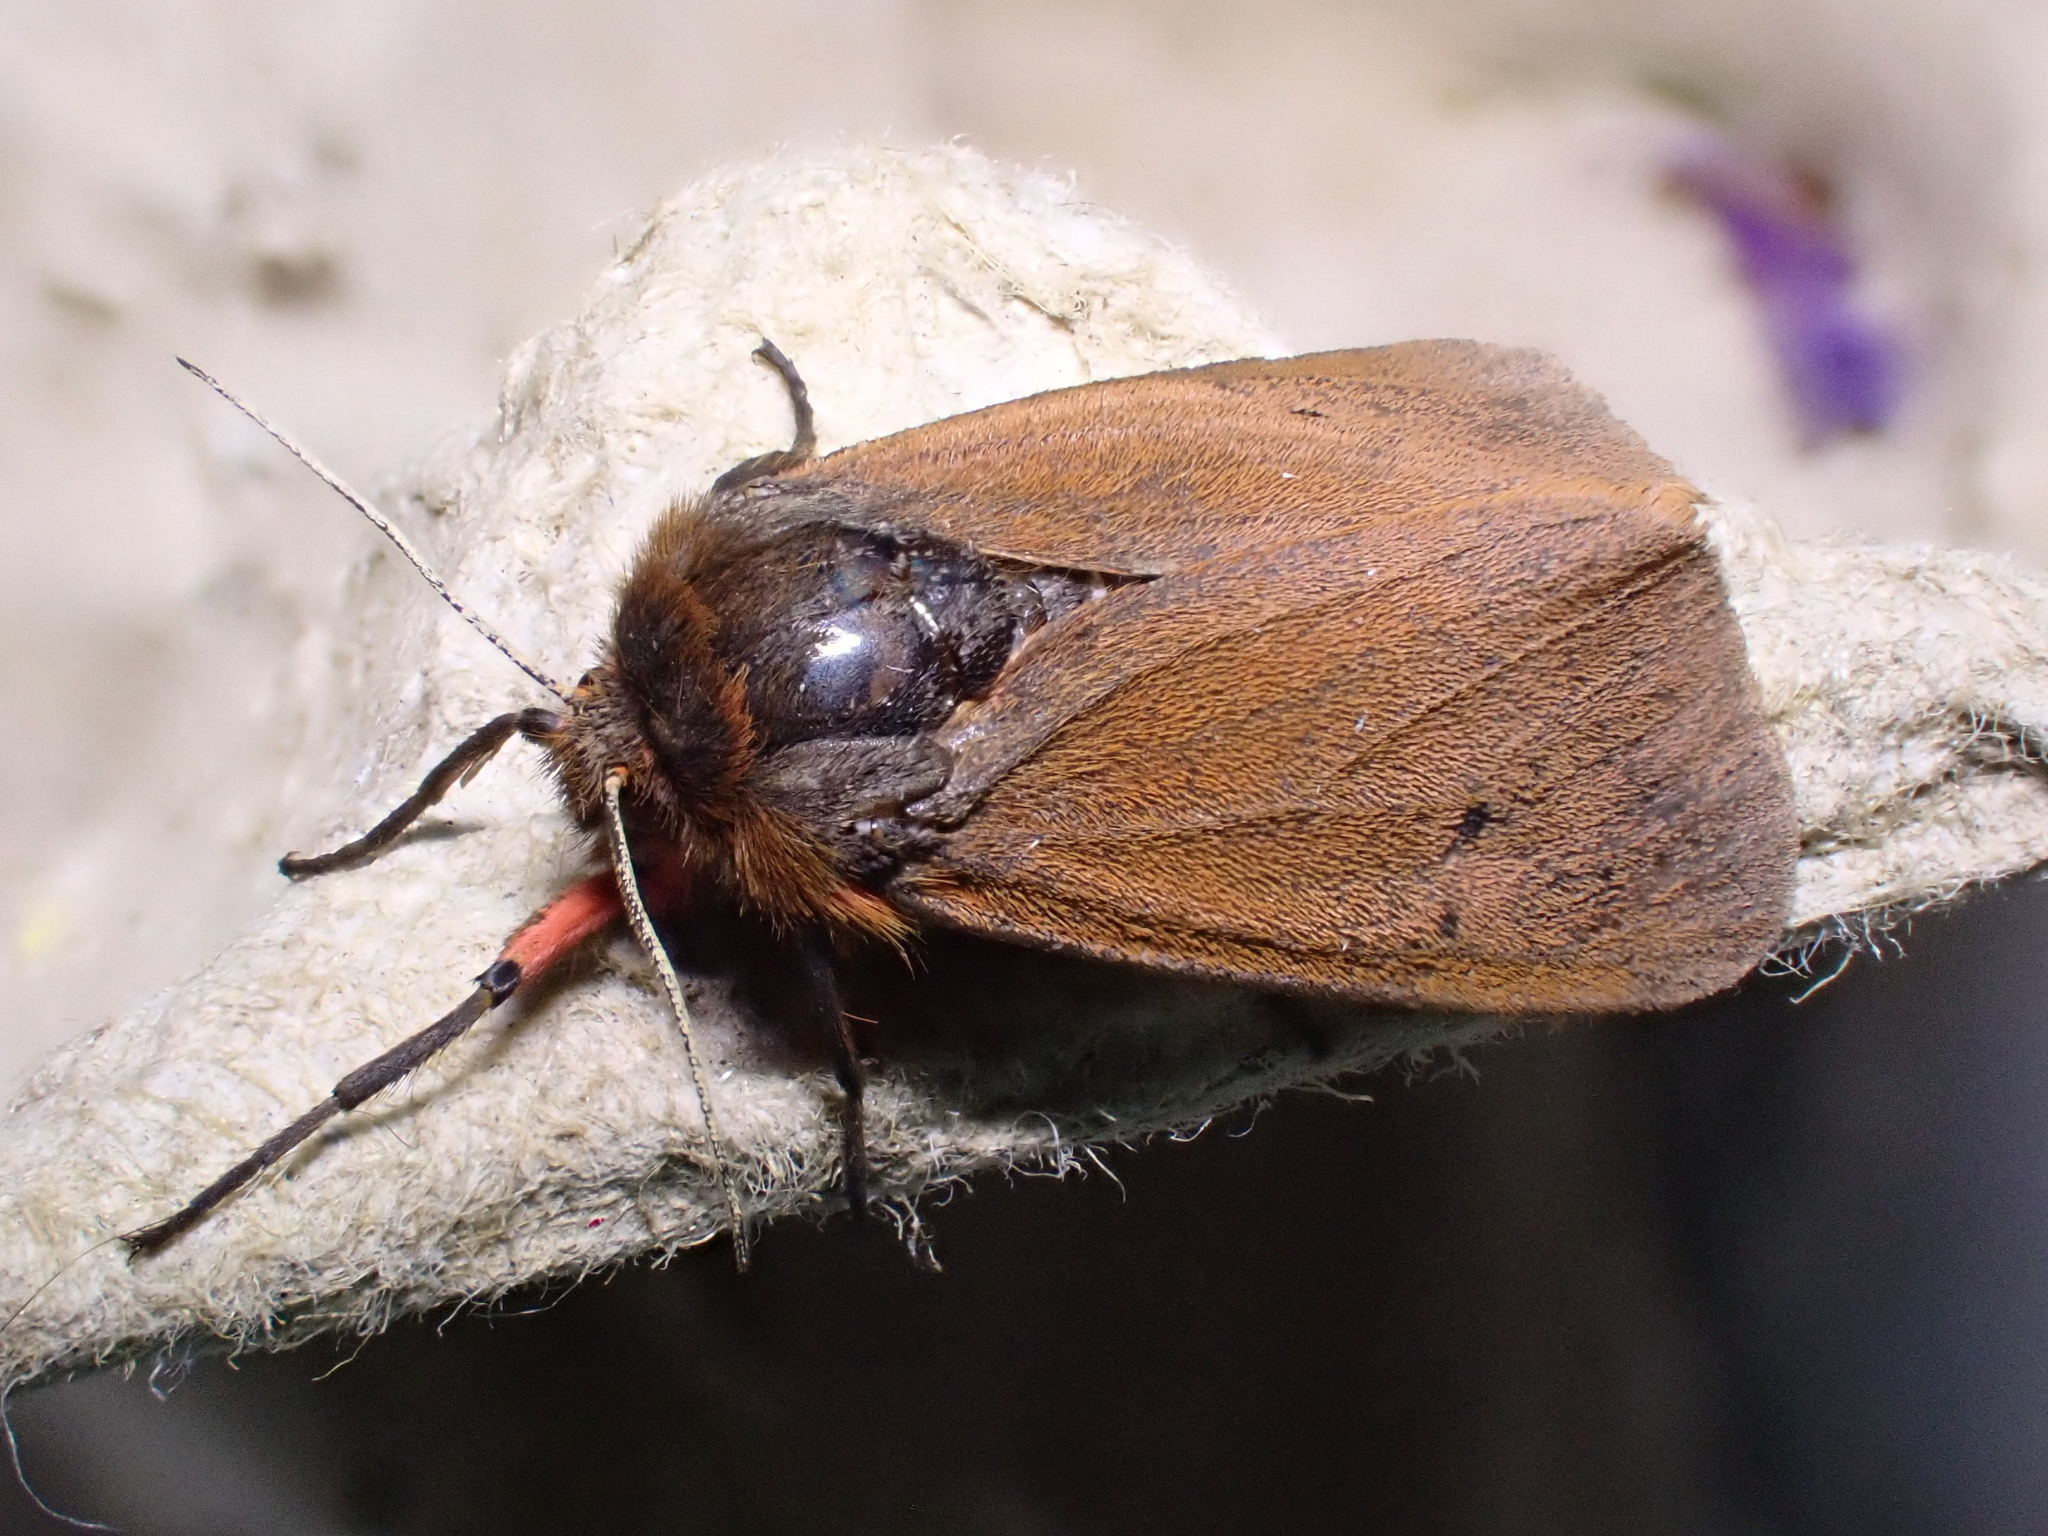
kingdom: Animalia
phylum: Arthropoda
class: Insecta
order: Lepidoptera
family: Erebidae
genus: Phragmatobia
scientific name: Phragmatobia fuliginosa
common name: Ruby tiger
